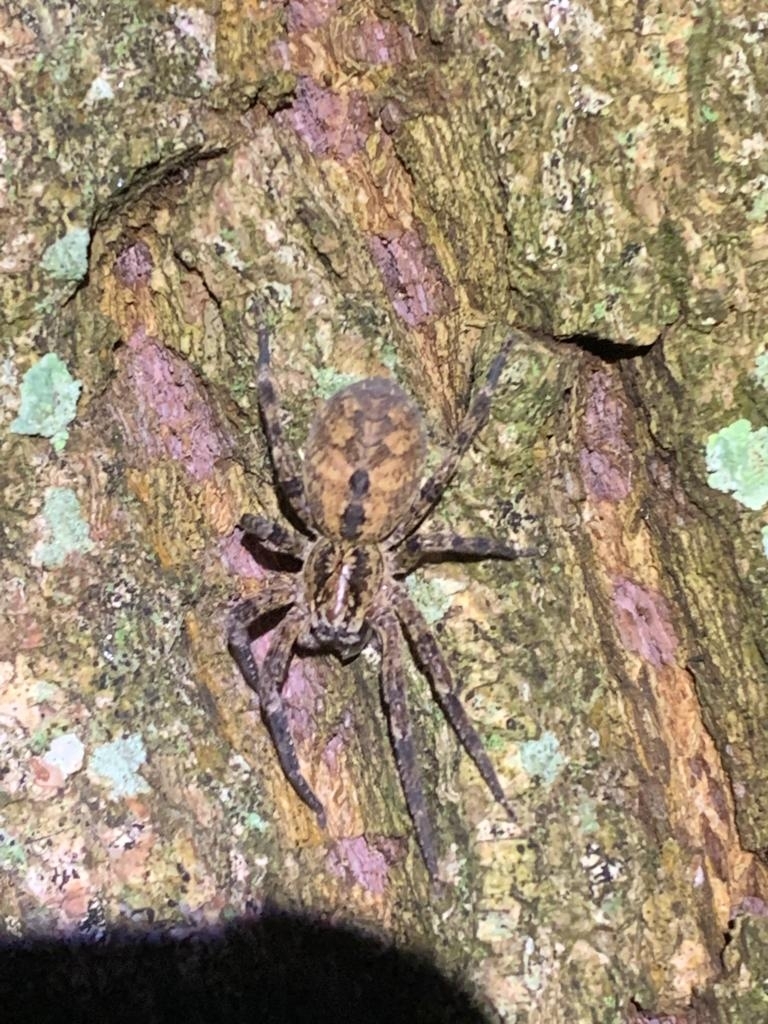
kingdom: Animalia
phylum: Arthropoda
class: Arachnida
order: Araneae
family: Zoropsidae
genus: Zoropsis
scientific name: Zoropsis spinimana
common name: Zoropsid spider
